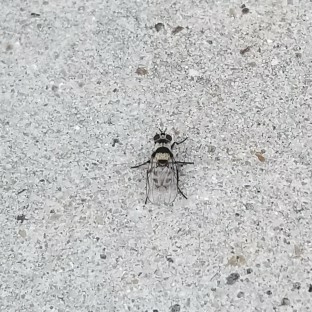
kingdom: Animalia
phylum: Arthropoda
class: Insecta
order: Diptera
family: Anthomyiidae
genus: Anthomyia
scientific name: Anthomyia illocata
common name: Fly
